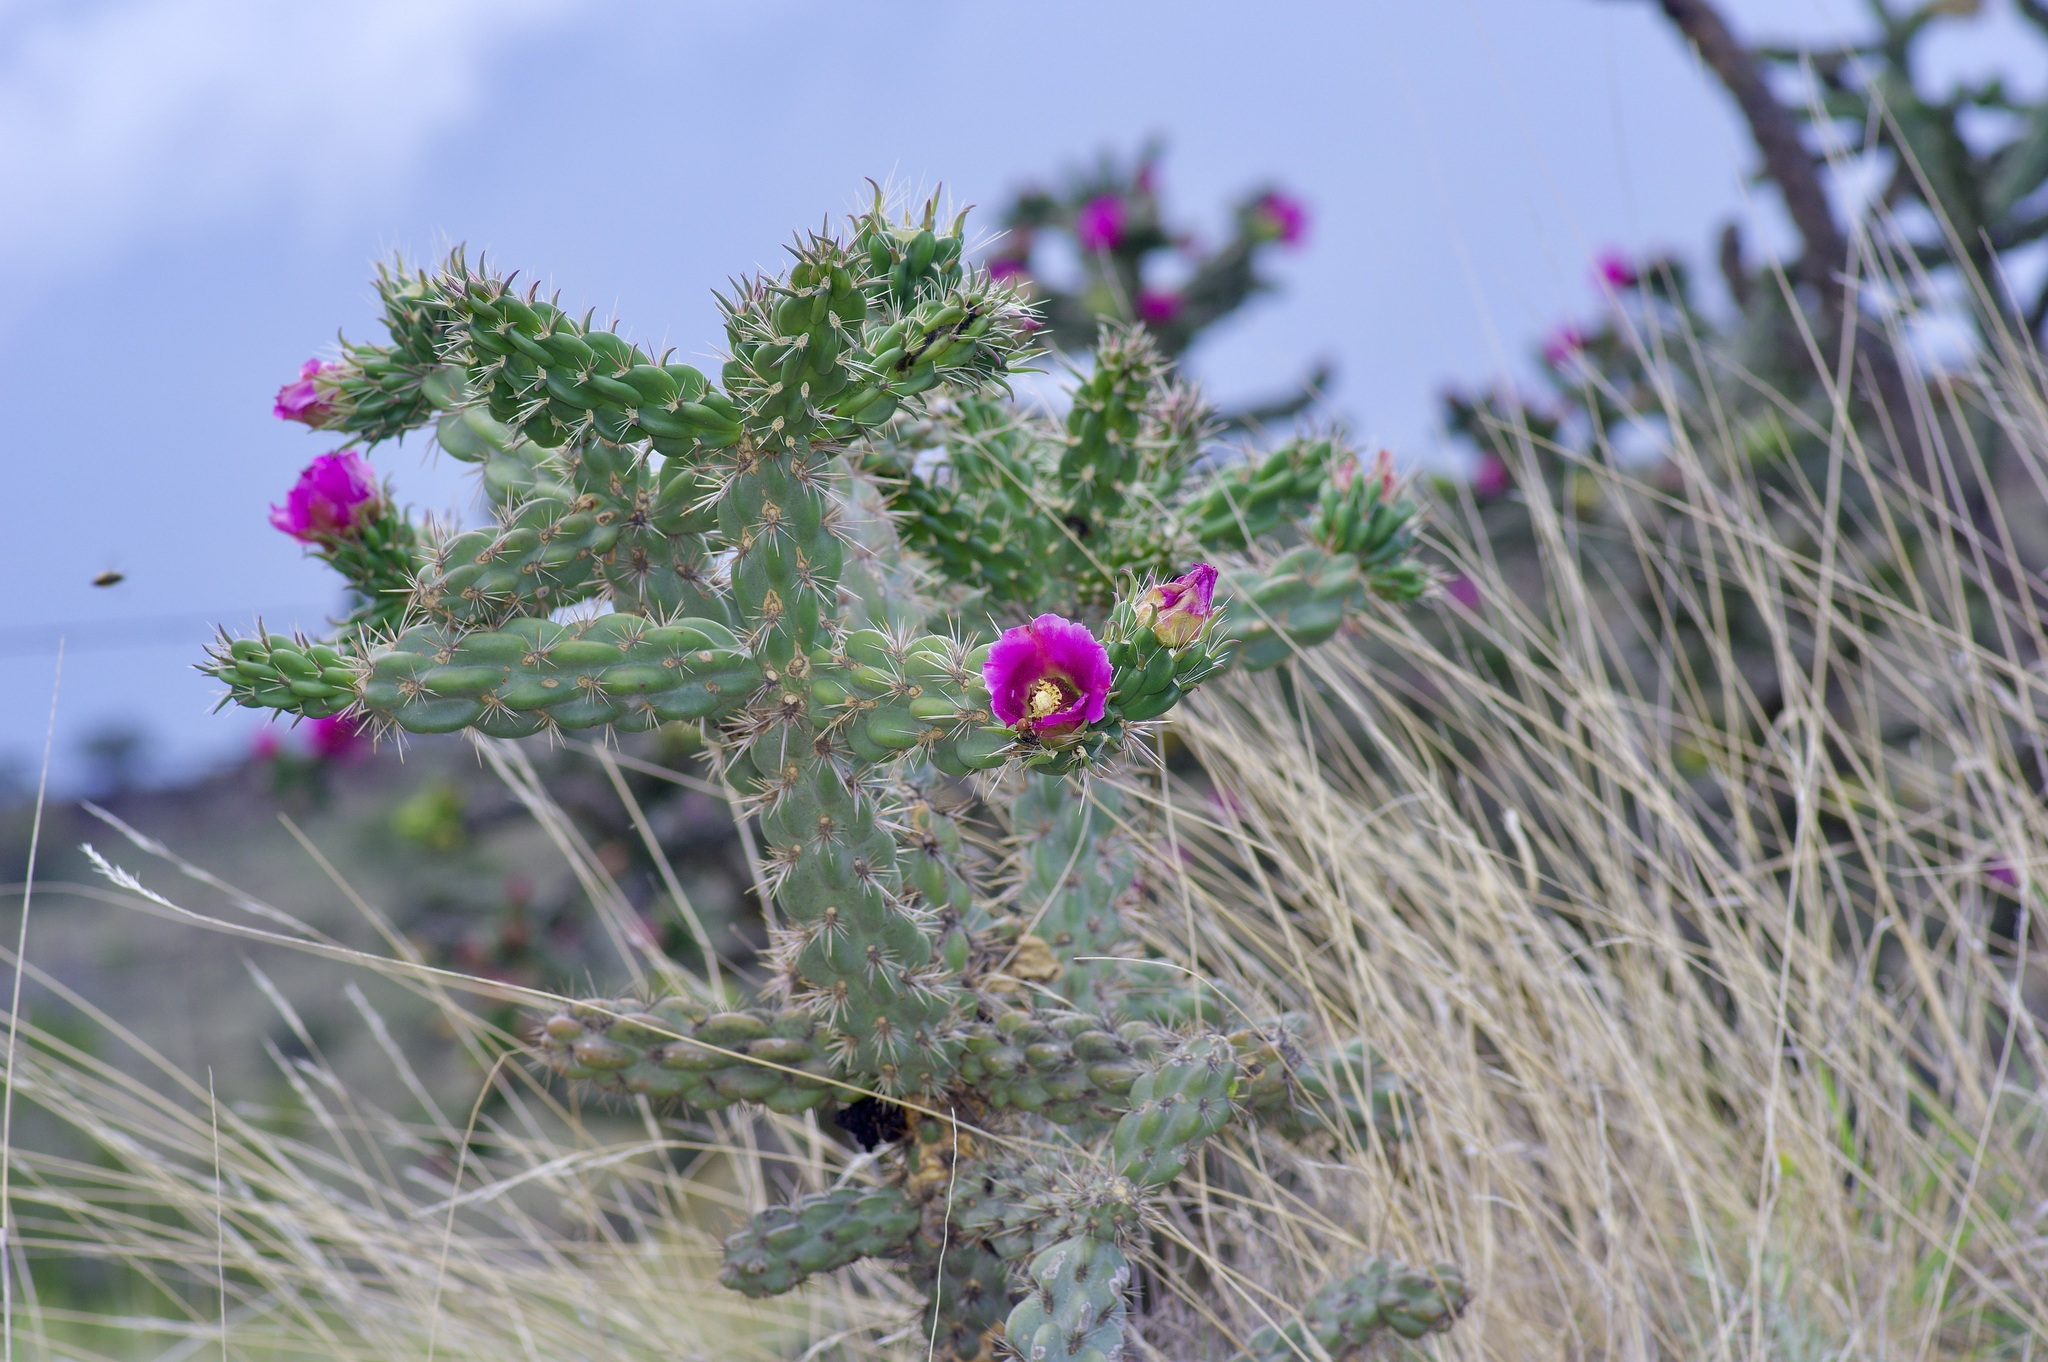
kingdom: Plantae
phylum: Tracheophyta
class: Magnoliopsida
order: Caryophyllales
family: Cactaceae
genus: Cylindropuntia
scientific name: Cylindropuntia imbricata
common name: Candelabrum cactus
